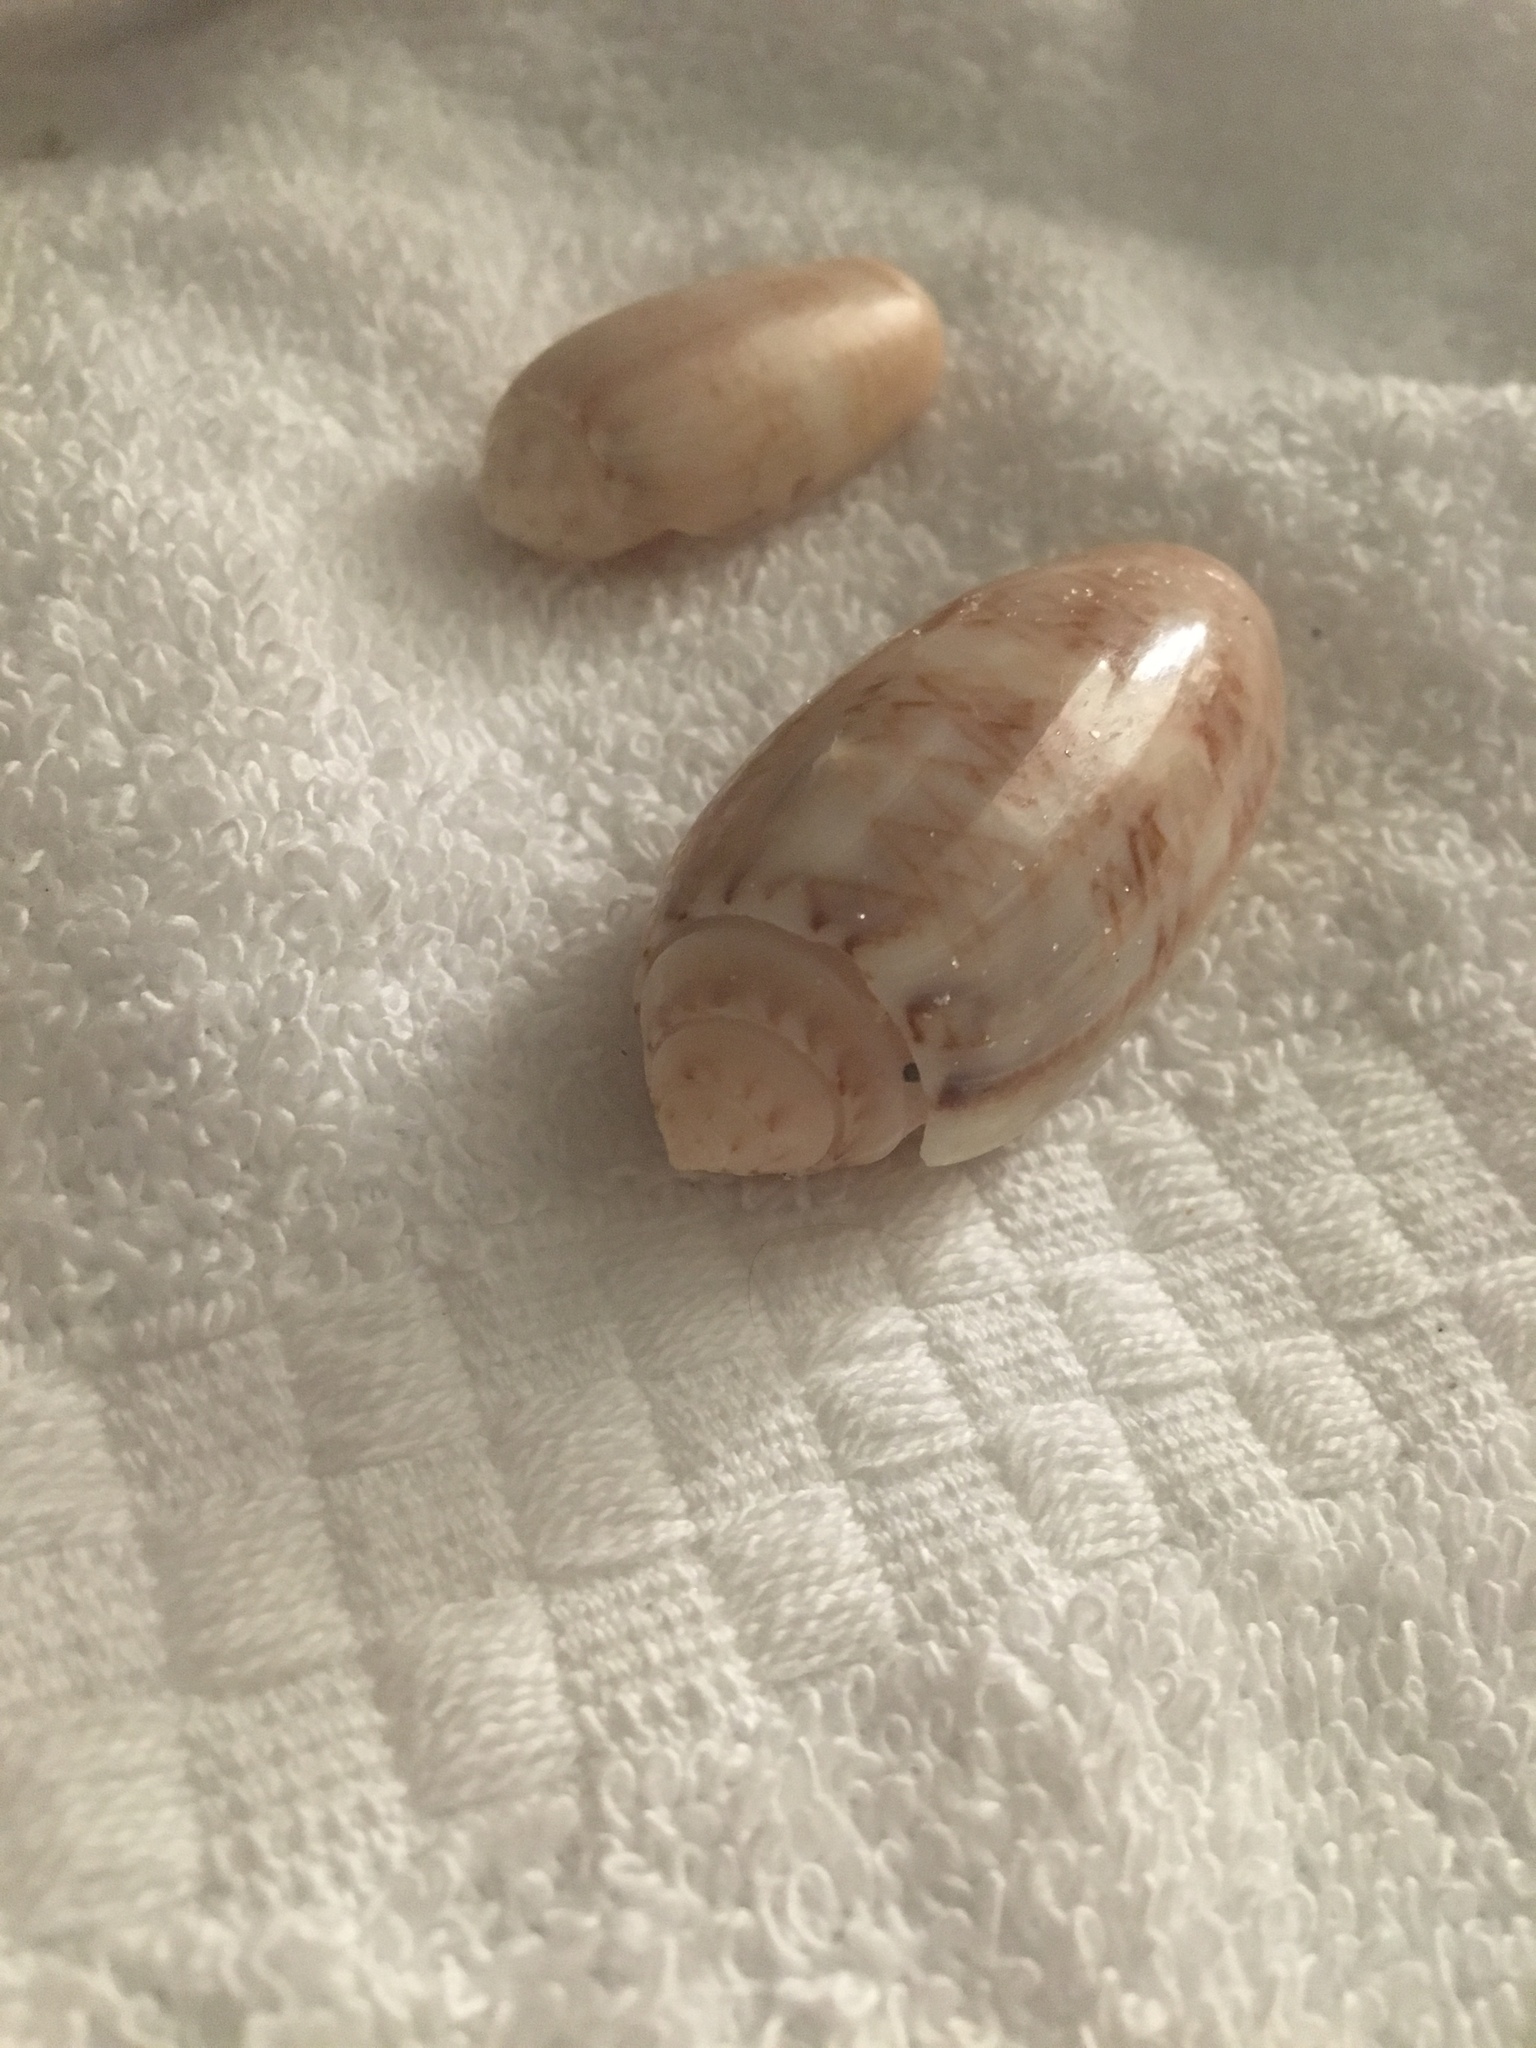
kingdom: Animalia
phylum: Mollusca
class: Gastropoda
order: Neogastropoda
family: Olividae
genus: Oliva
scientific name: Oliva sayana
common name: Lettered olive
